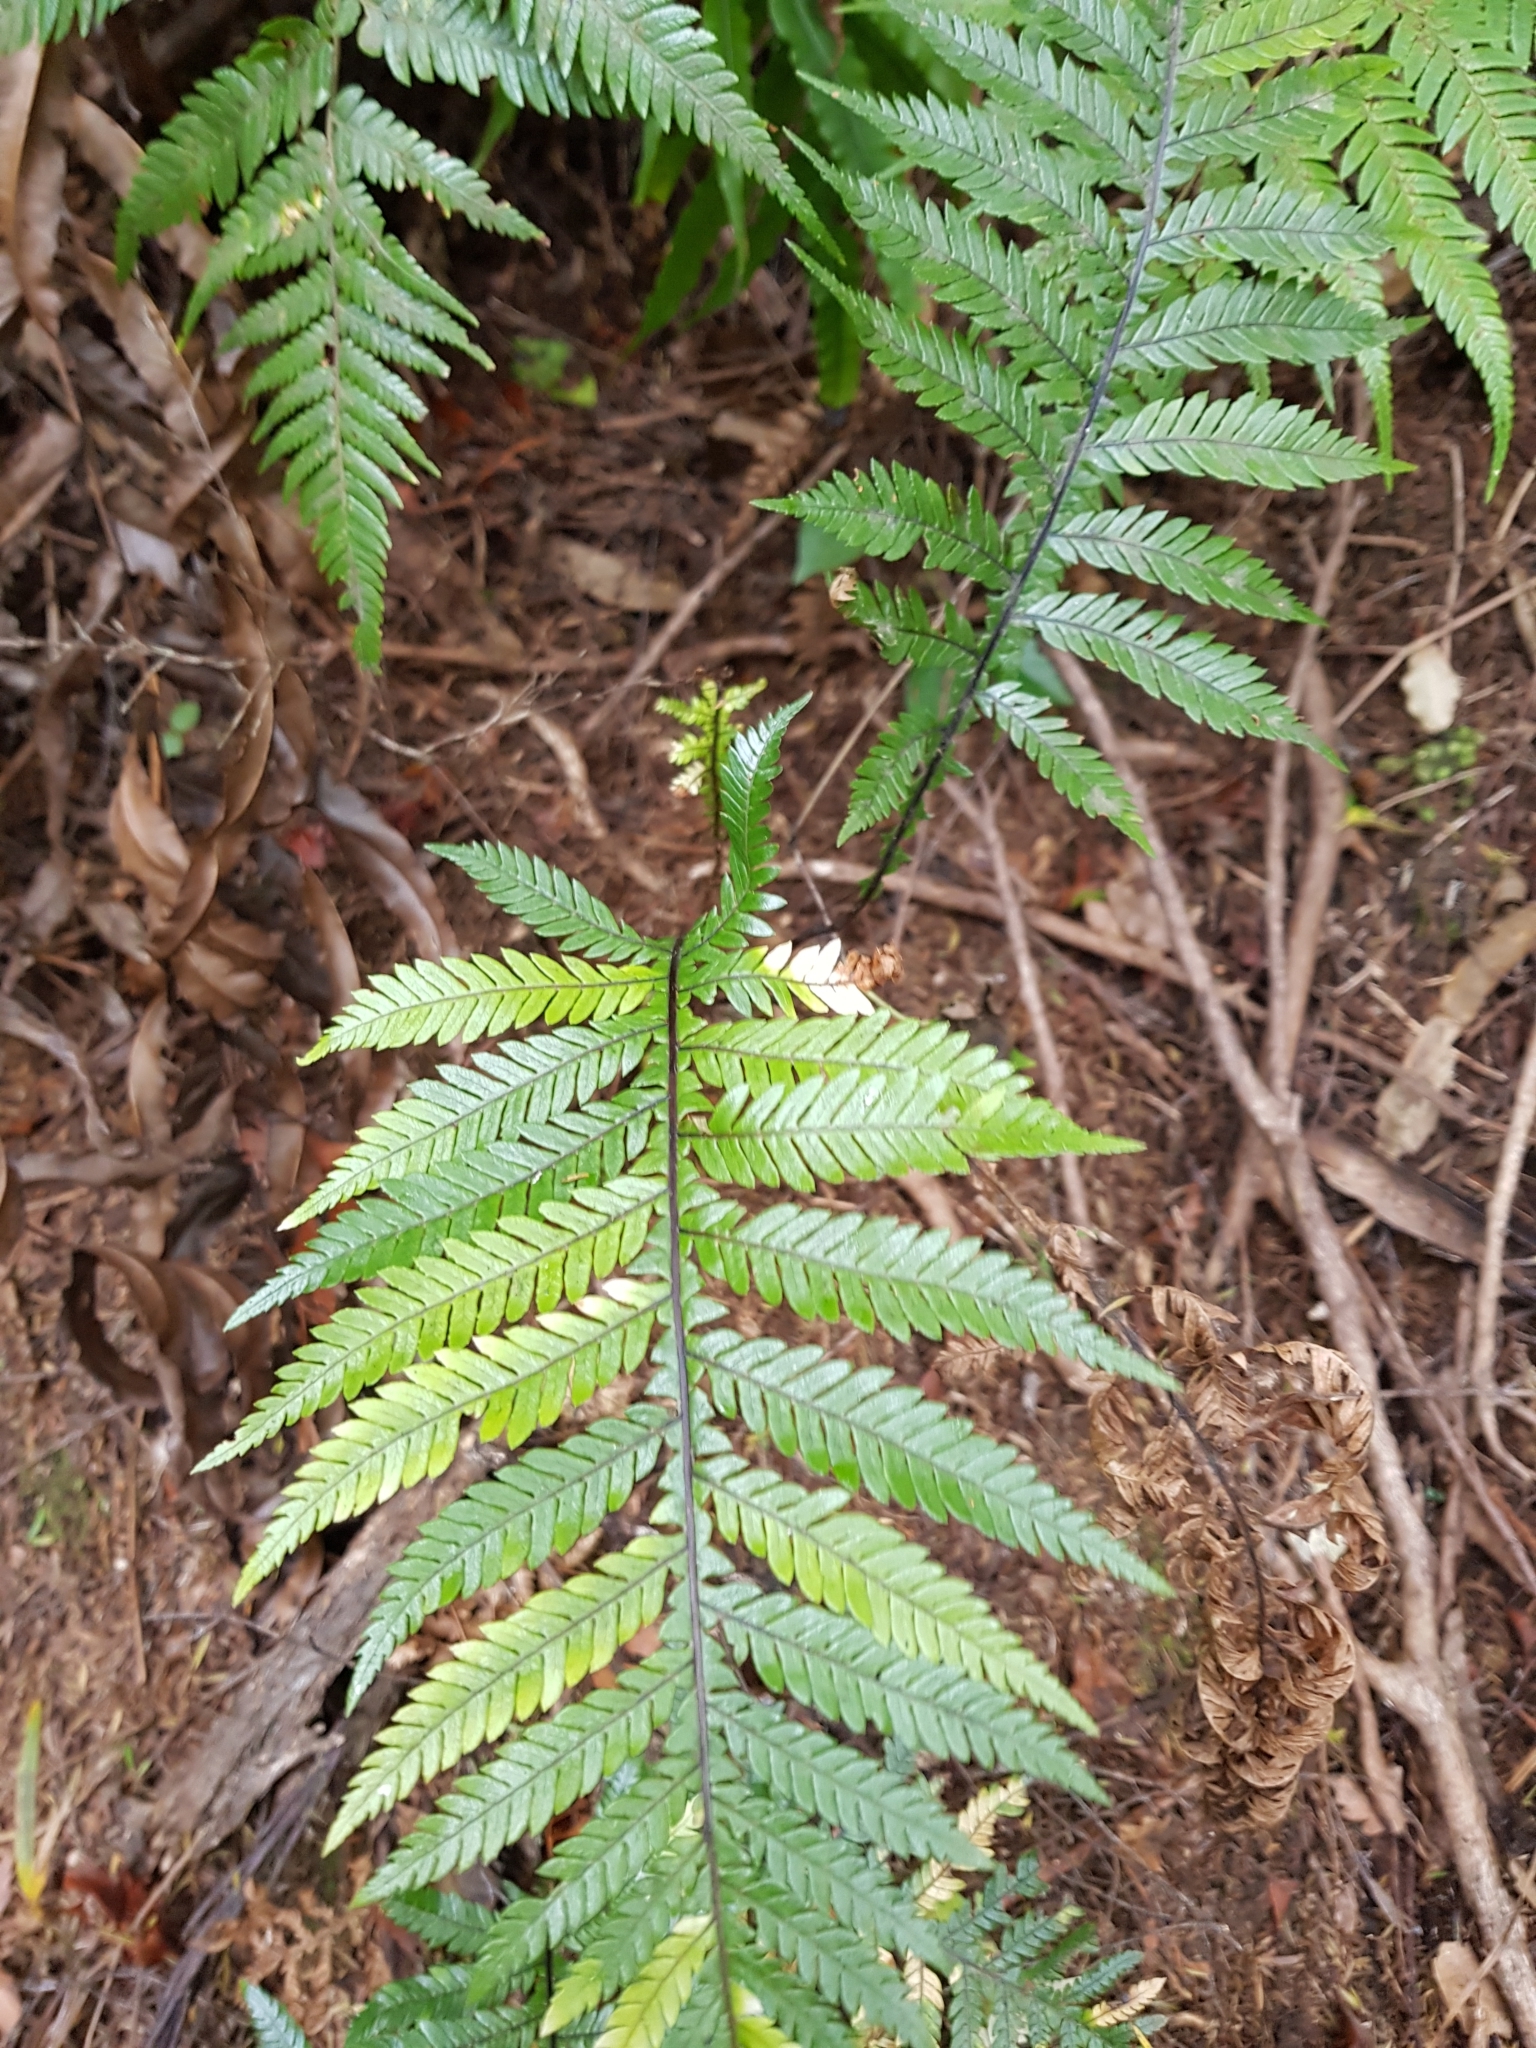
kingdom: Plantae
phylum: Tracheophyta
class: Polypodiopsida
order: Polypodiales
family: Blechnaceae
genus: Diploblechnum
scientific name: Diploblechnum fraseri
